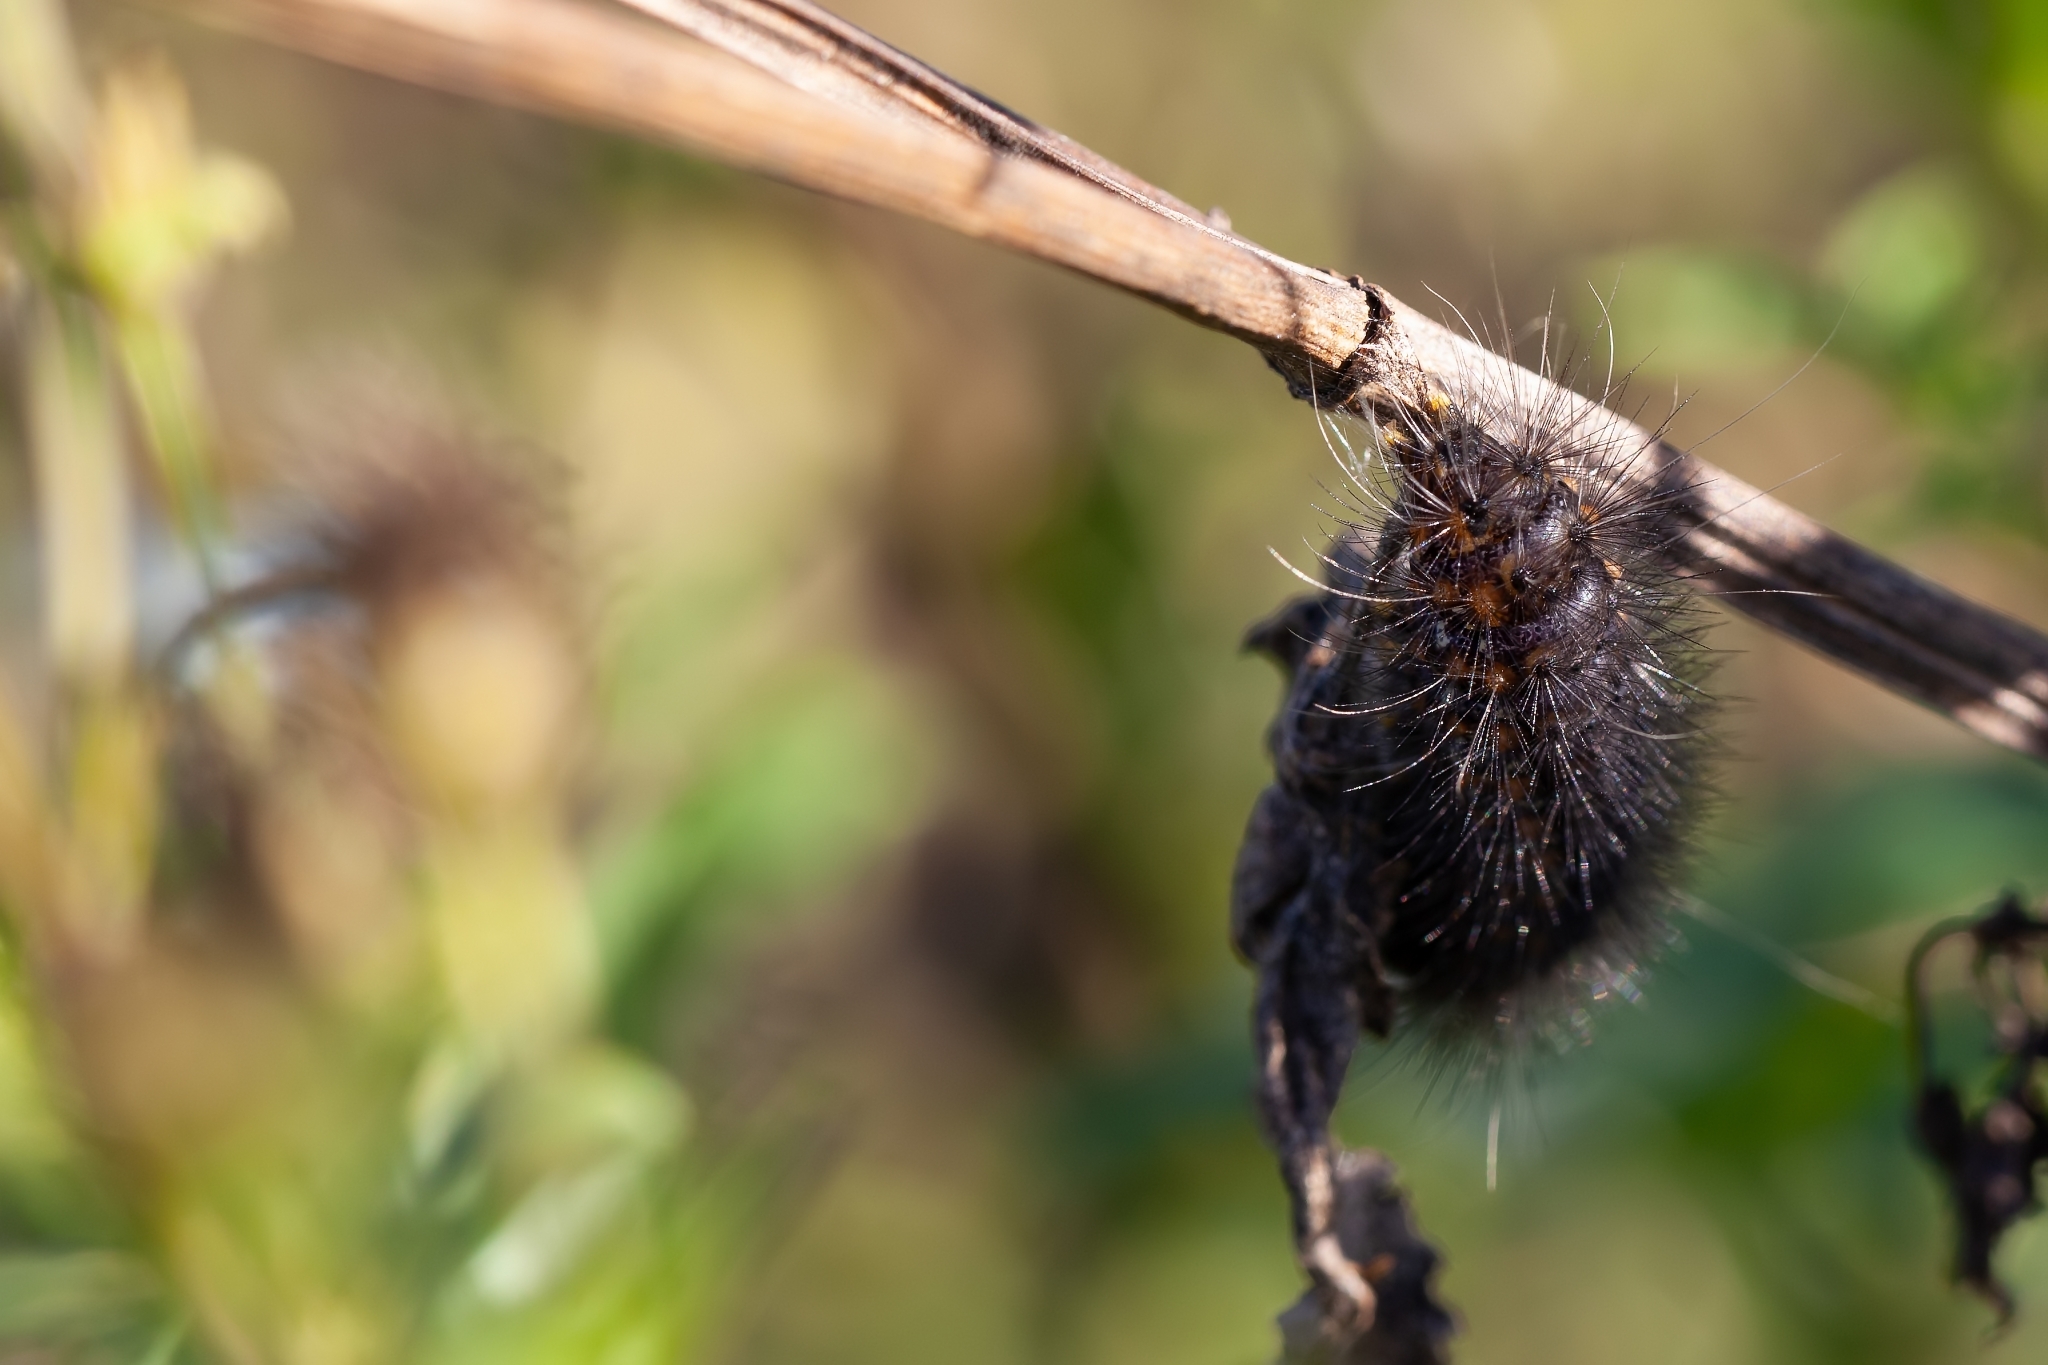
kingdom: Animalia
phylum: Arthropoda
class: Insecta
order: Lepidoptera
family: Erebidae
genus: Estigmene
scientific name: Estigmene acrea
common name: Salt marsh moth
